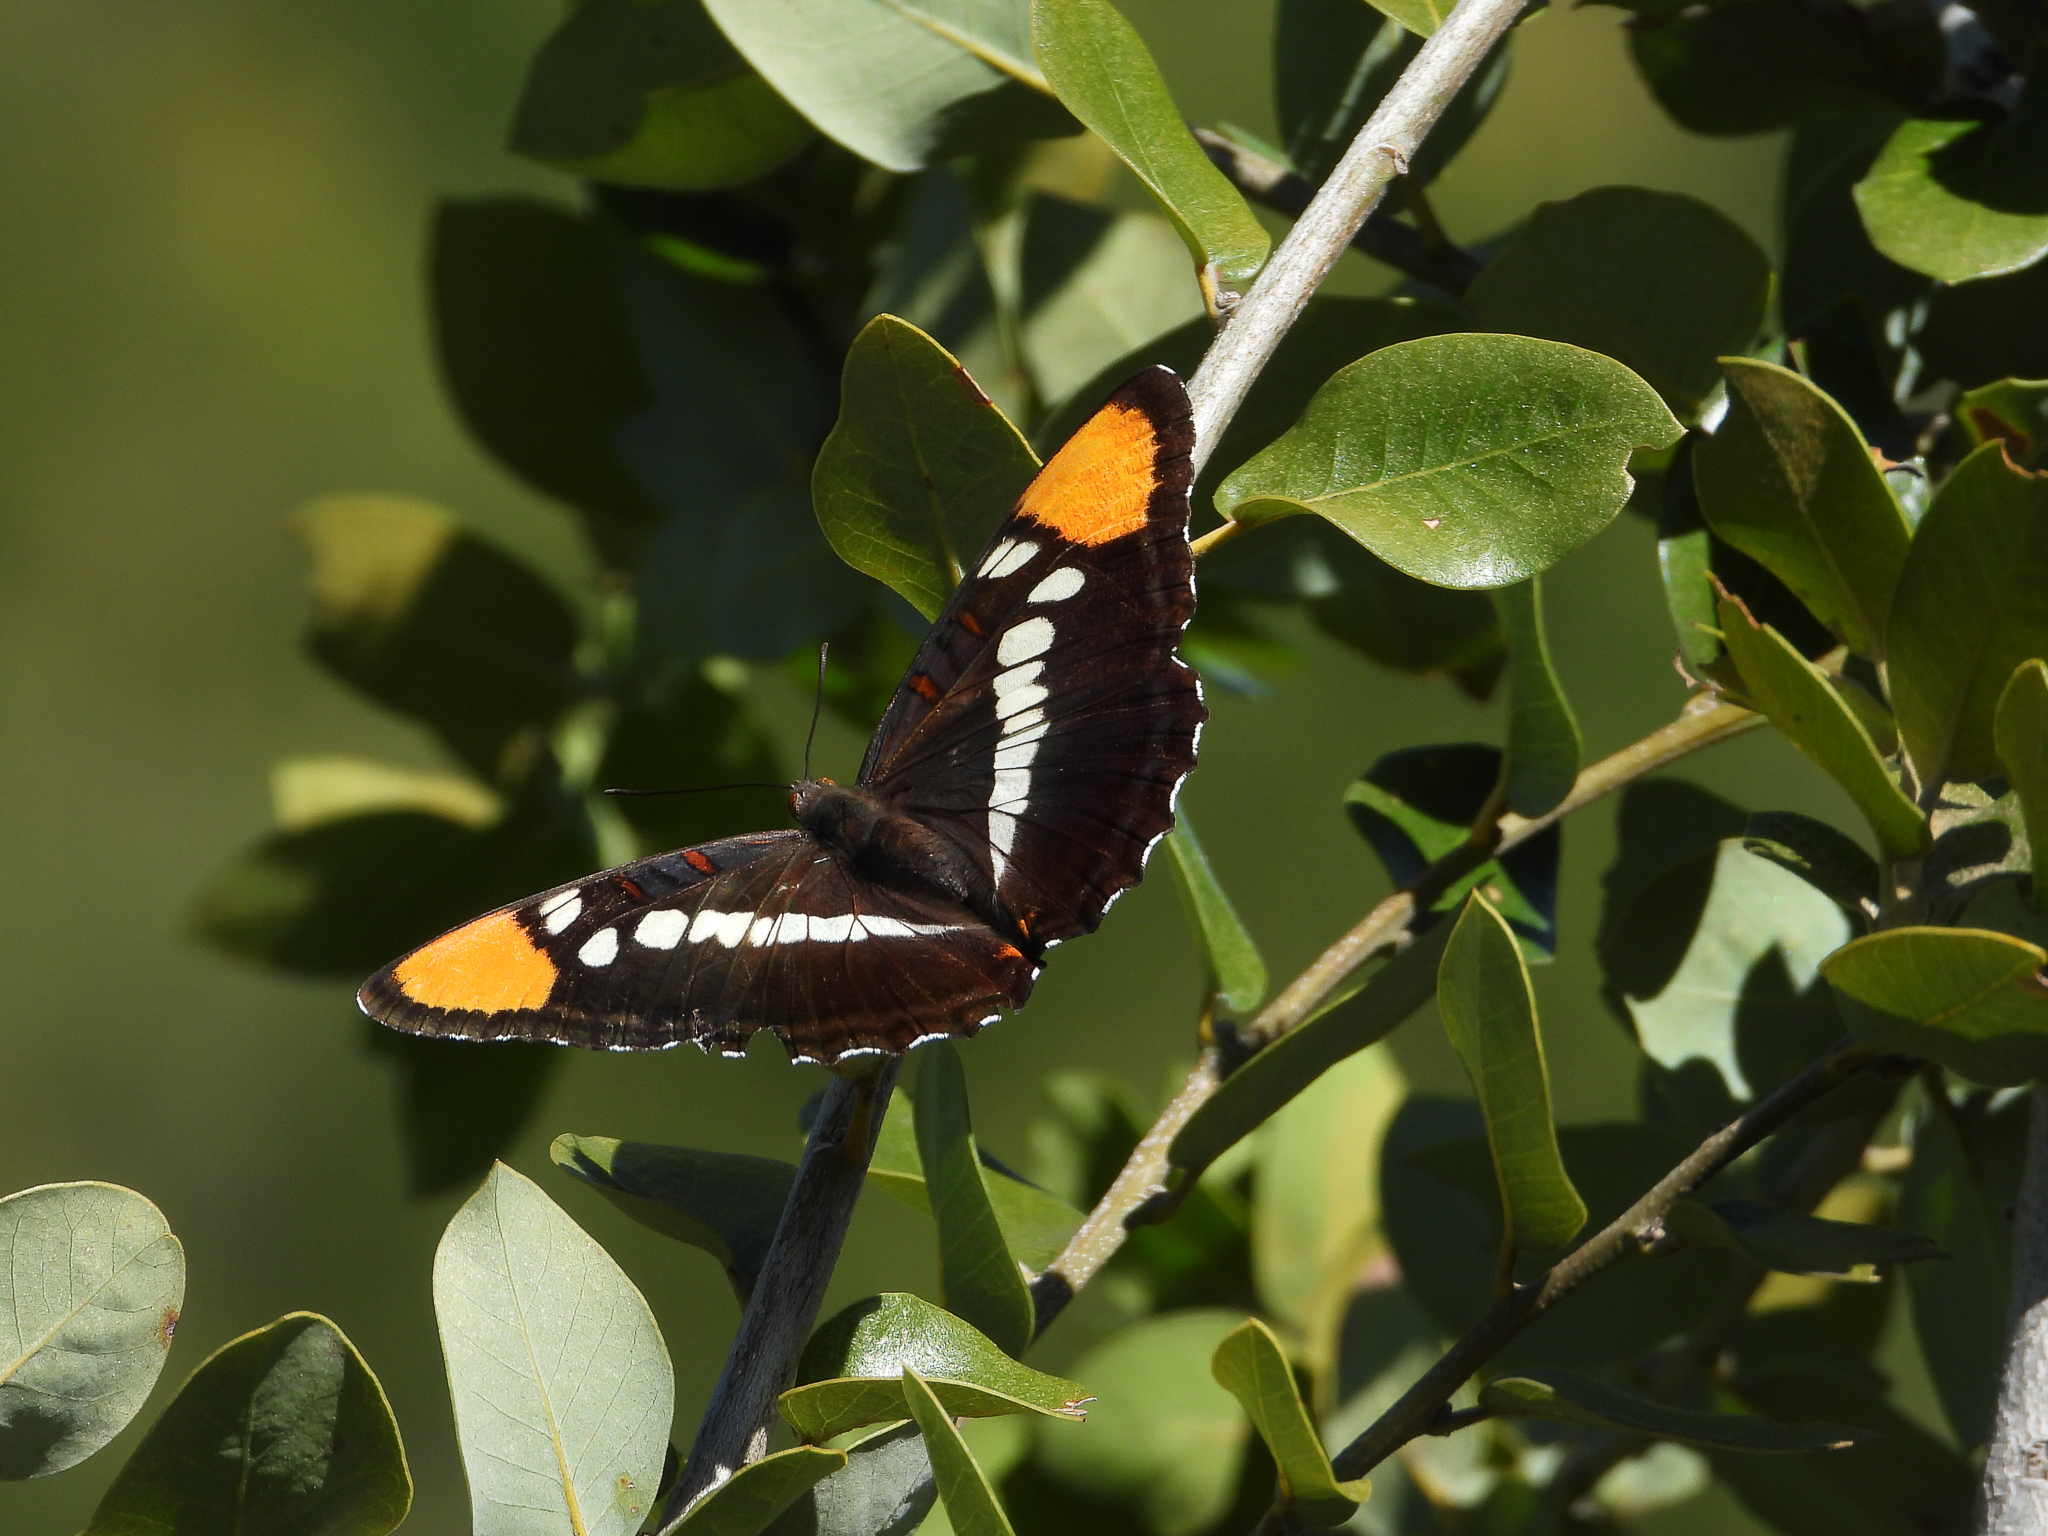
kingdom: Animalia
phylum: Arthropoda
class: Insecta
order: Lepidoptera
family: Nymphalidae
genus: Limenitis
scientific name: Limenitis bredowii
